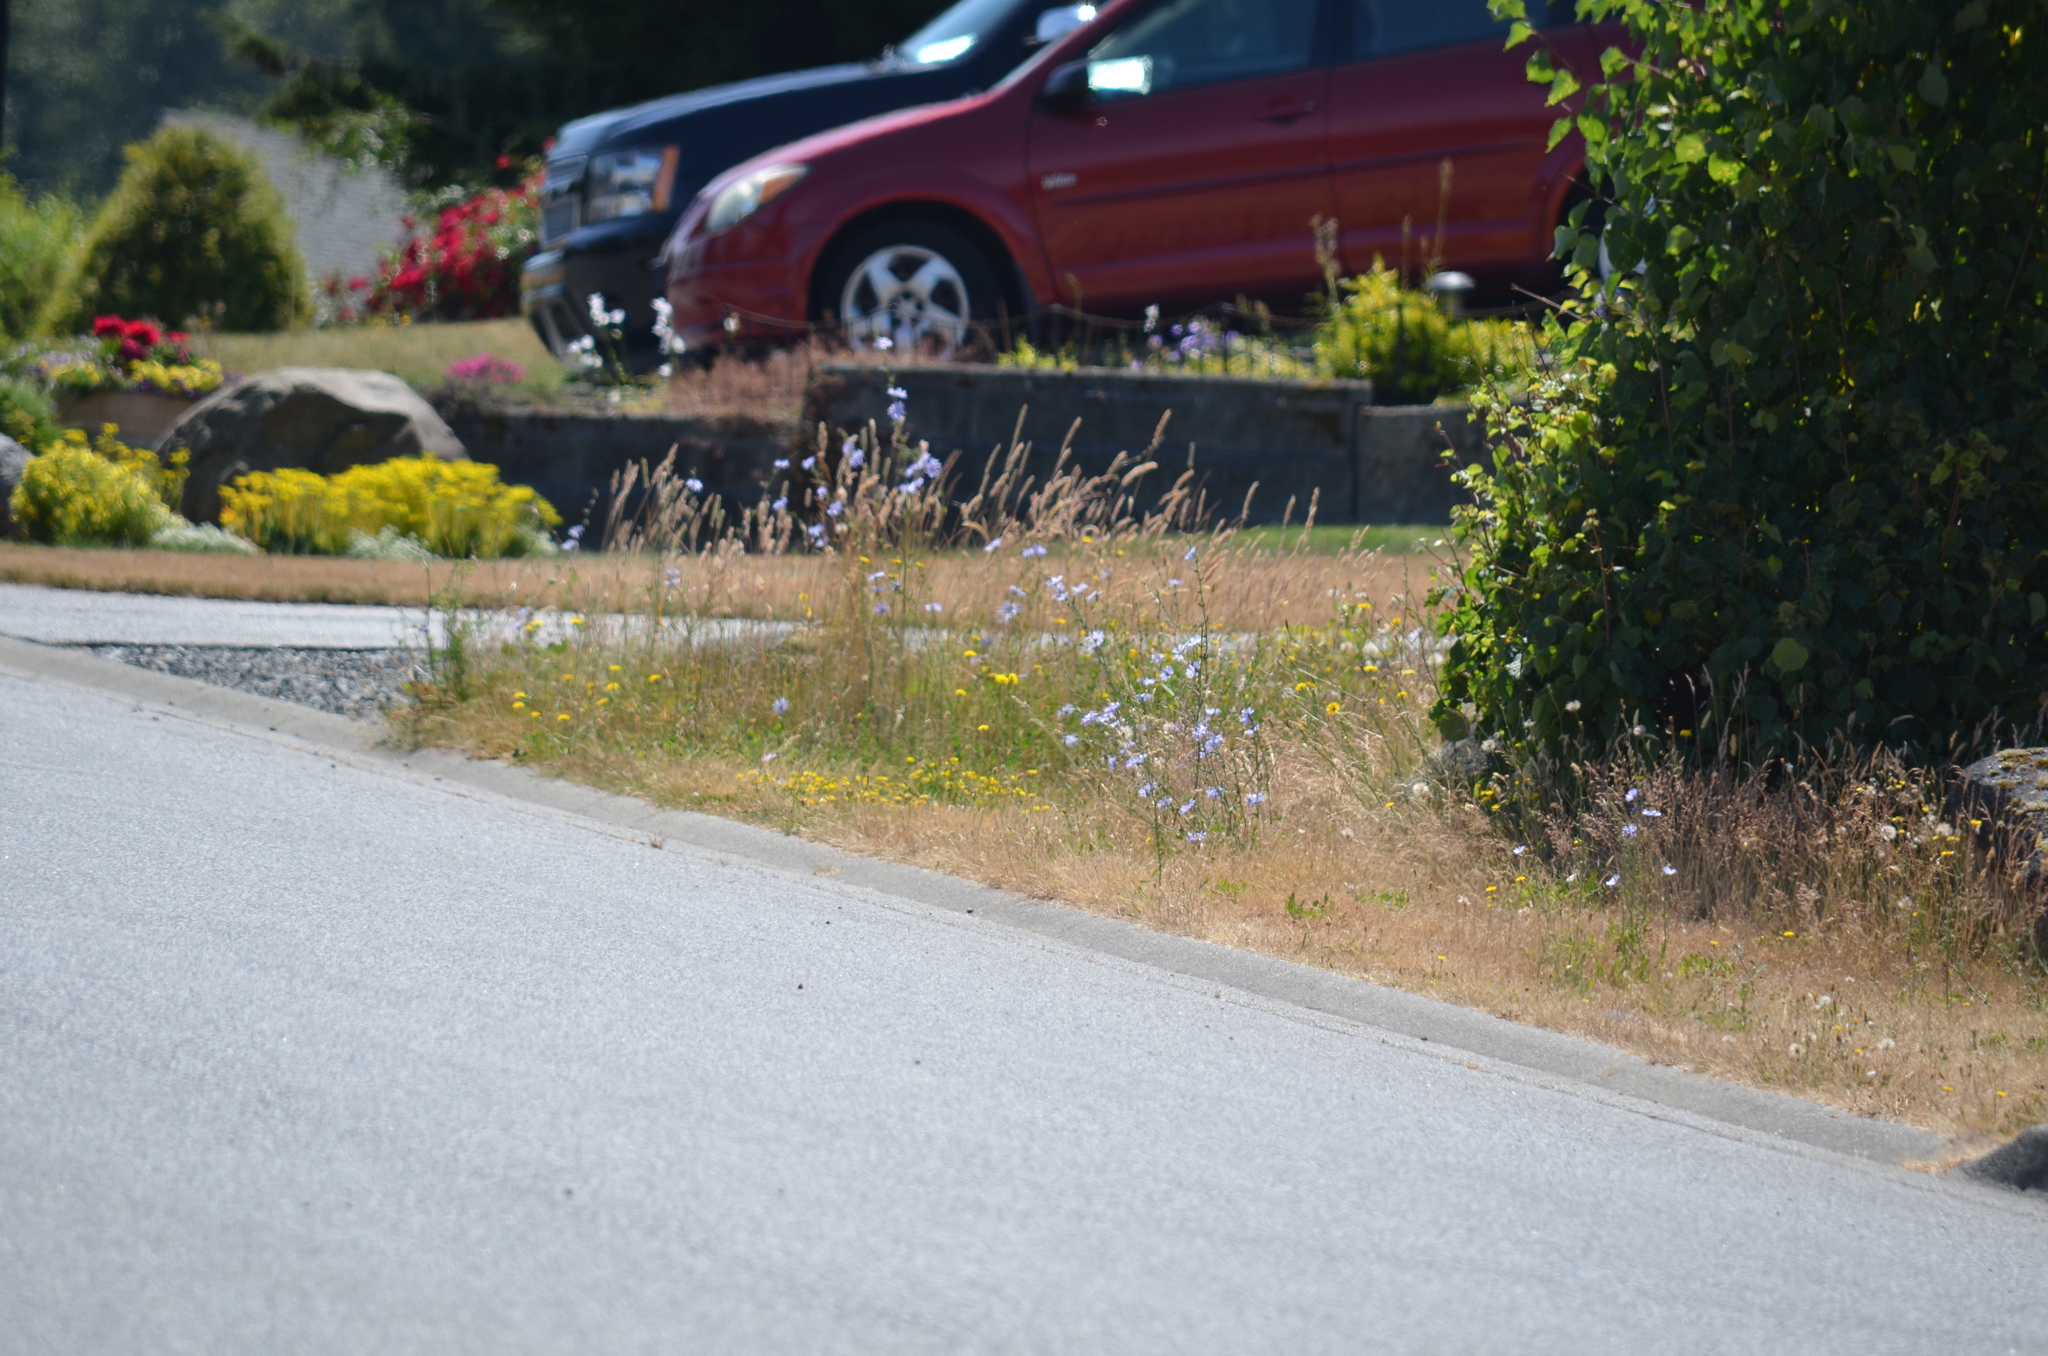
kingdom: Plantae
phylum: Tracheophyta
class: Magnoliopsida
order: Asterales
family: Asteraceae
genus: Cichorium
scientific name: Cichorium intybus
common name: Chicory
